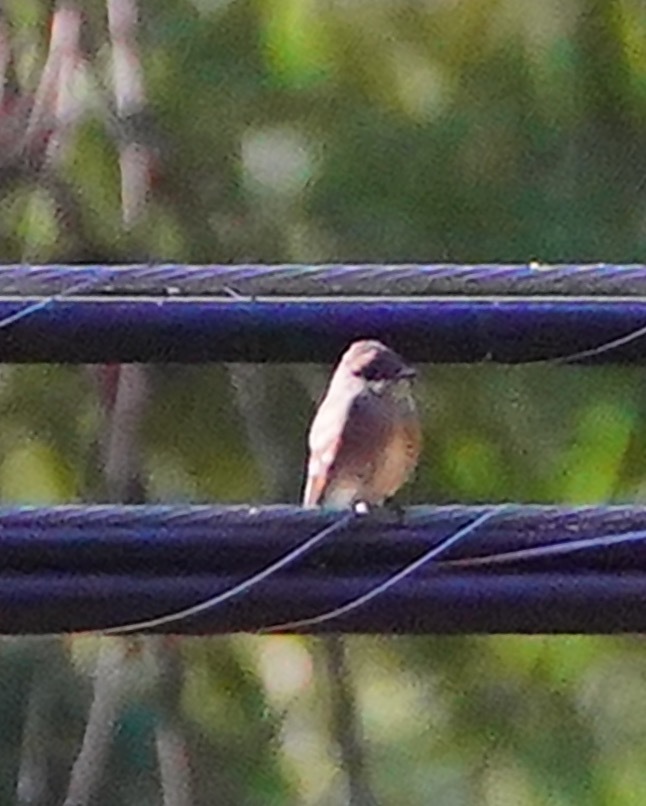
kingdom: Animalia
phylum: Chordata
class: Aves
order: Passeriformes
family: Tyrannidae
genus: Contopus
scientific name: Contopus sordidulus
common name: Western wood-pewee
